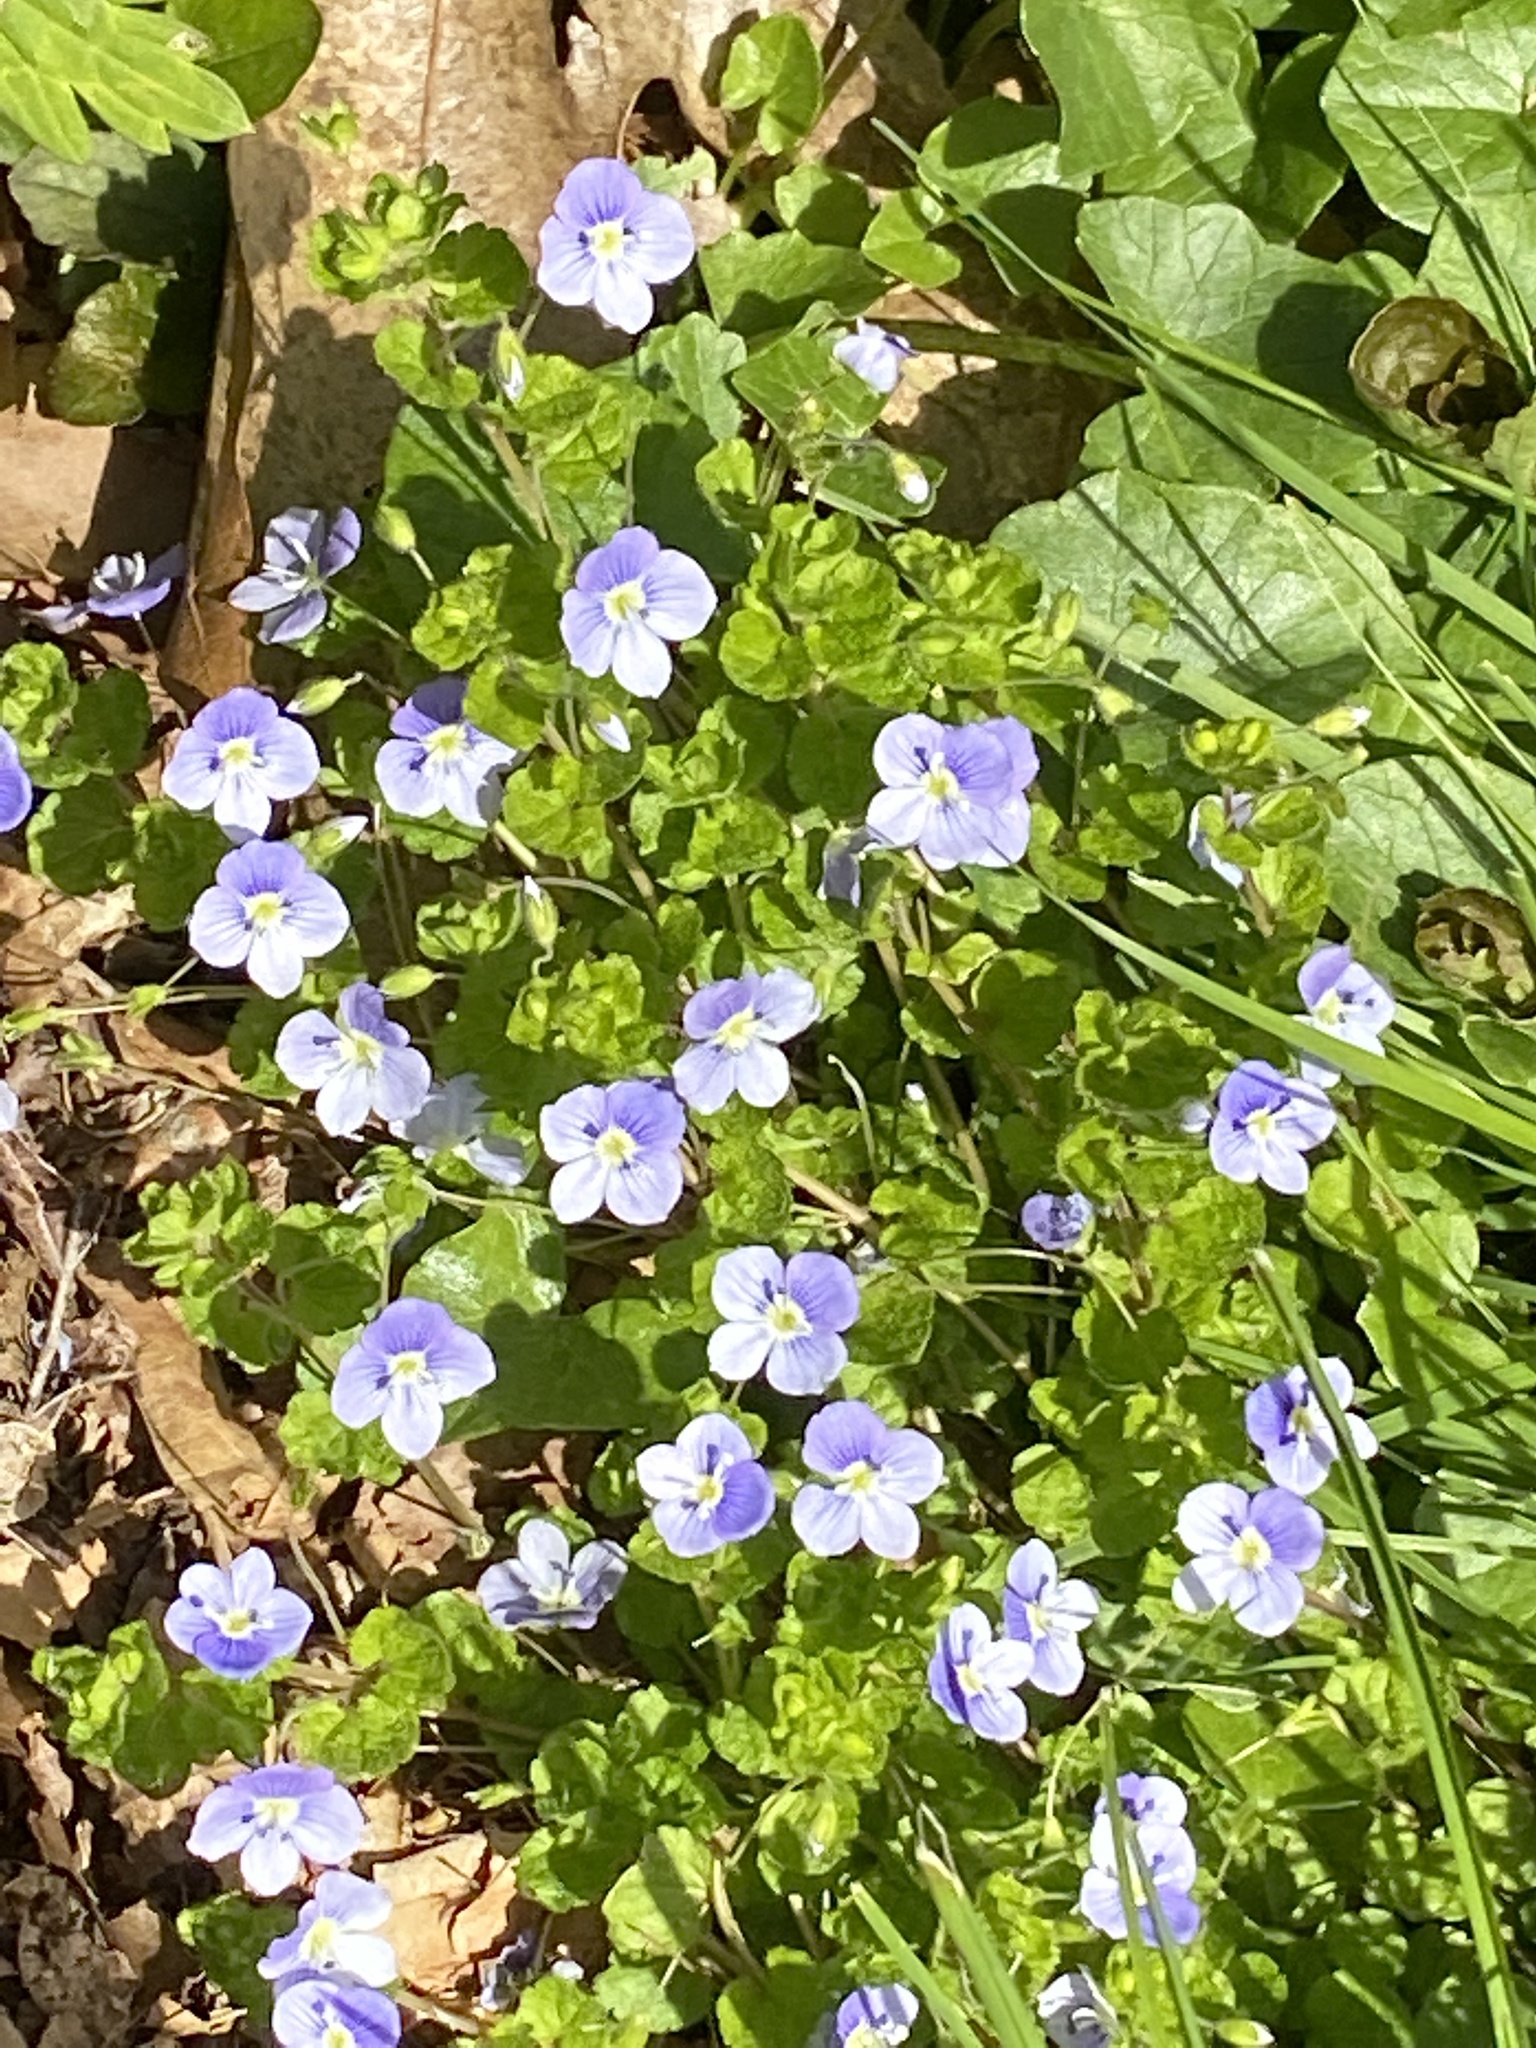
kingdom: Plantae
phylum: Tracheophyta
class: Magnoliopsida
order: Lamiales
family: Plantaginaceae
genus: Veronica
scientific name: Veronica filiformis
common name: Slender speedwell
